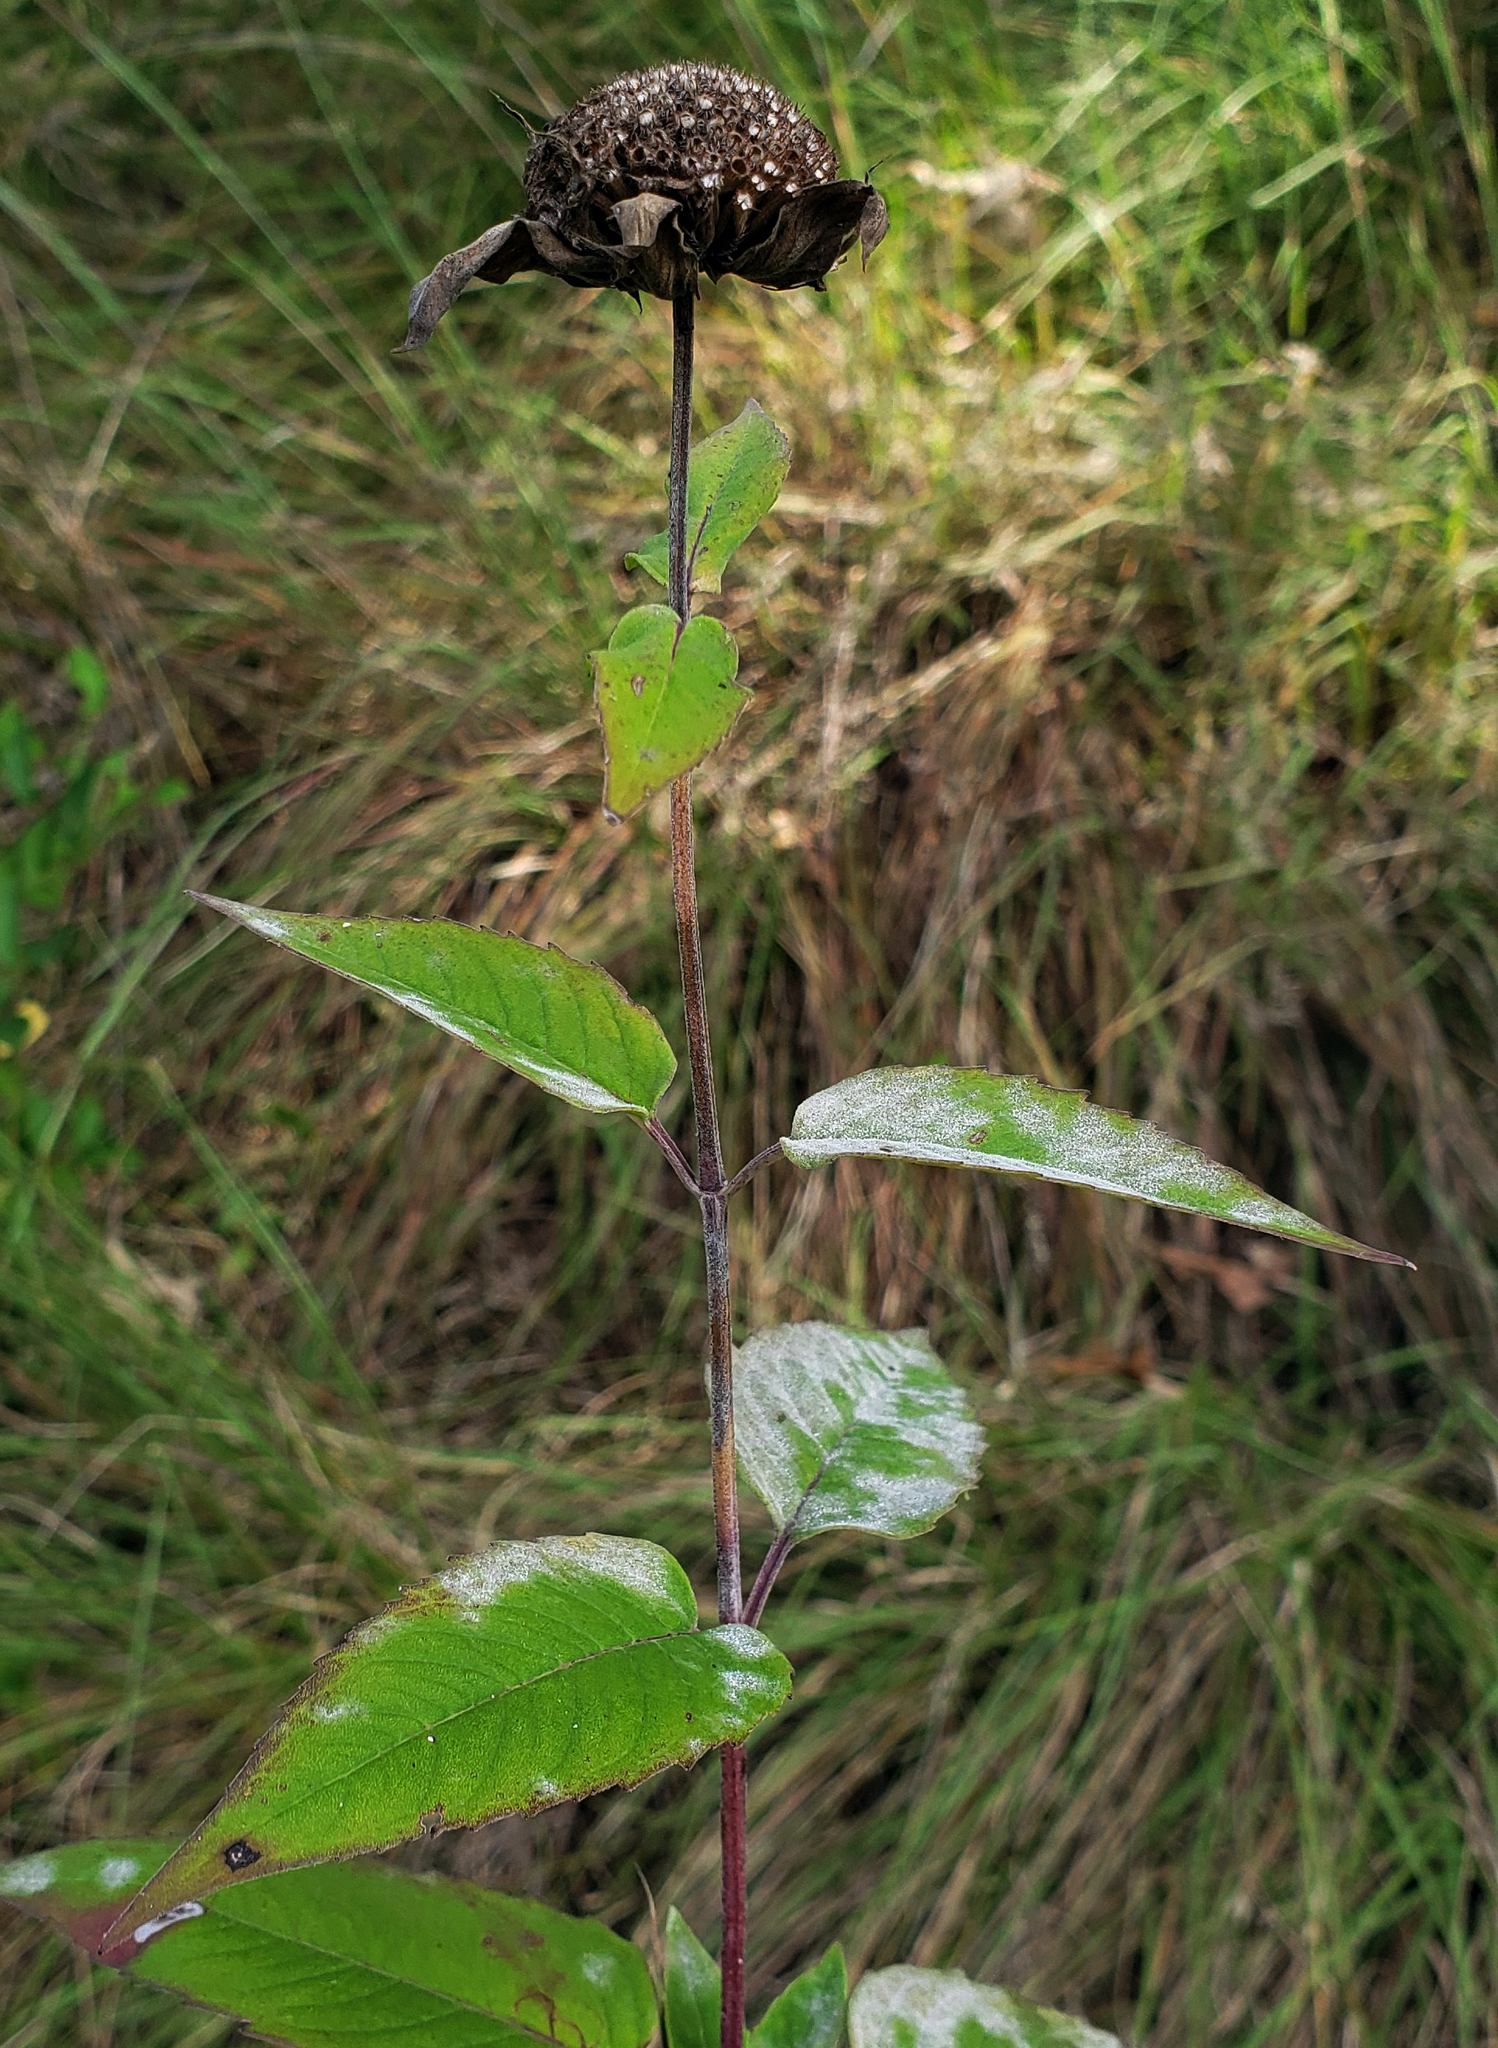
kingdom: Plantae
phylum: Tracheophyta
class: Magnoliopsida
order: Lamiales
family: Lamiaceae
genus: Monarda
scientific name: Monarda fistulosa
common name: Purple beebalm
